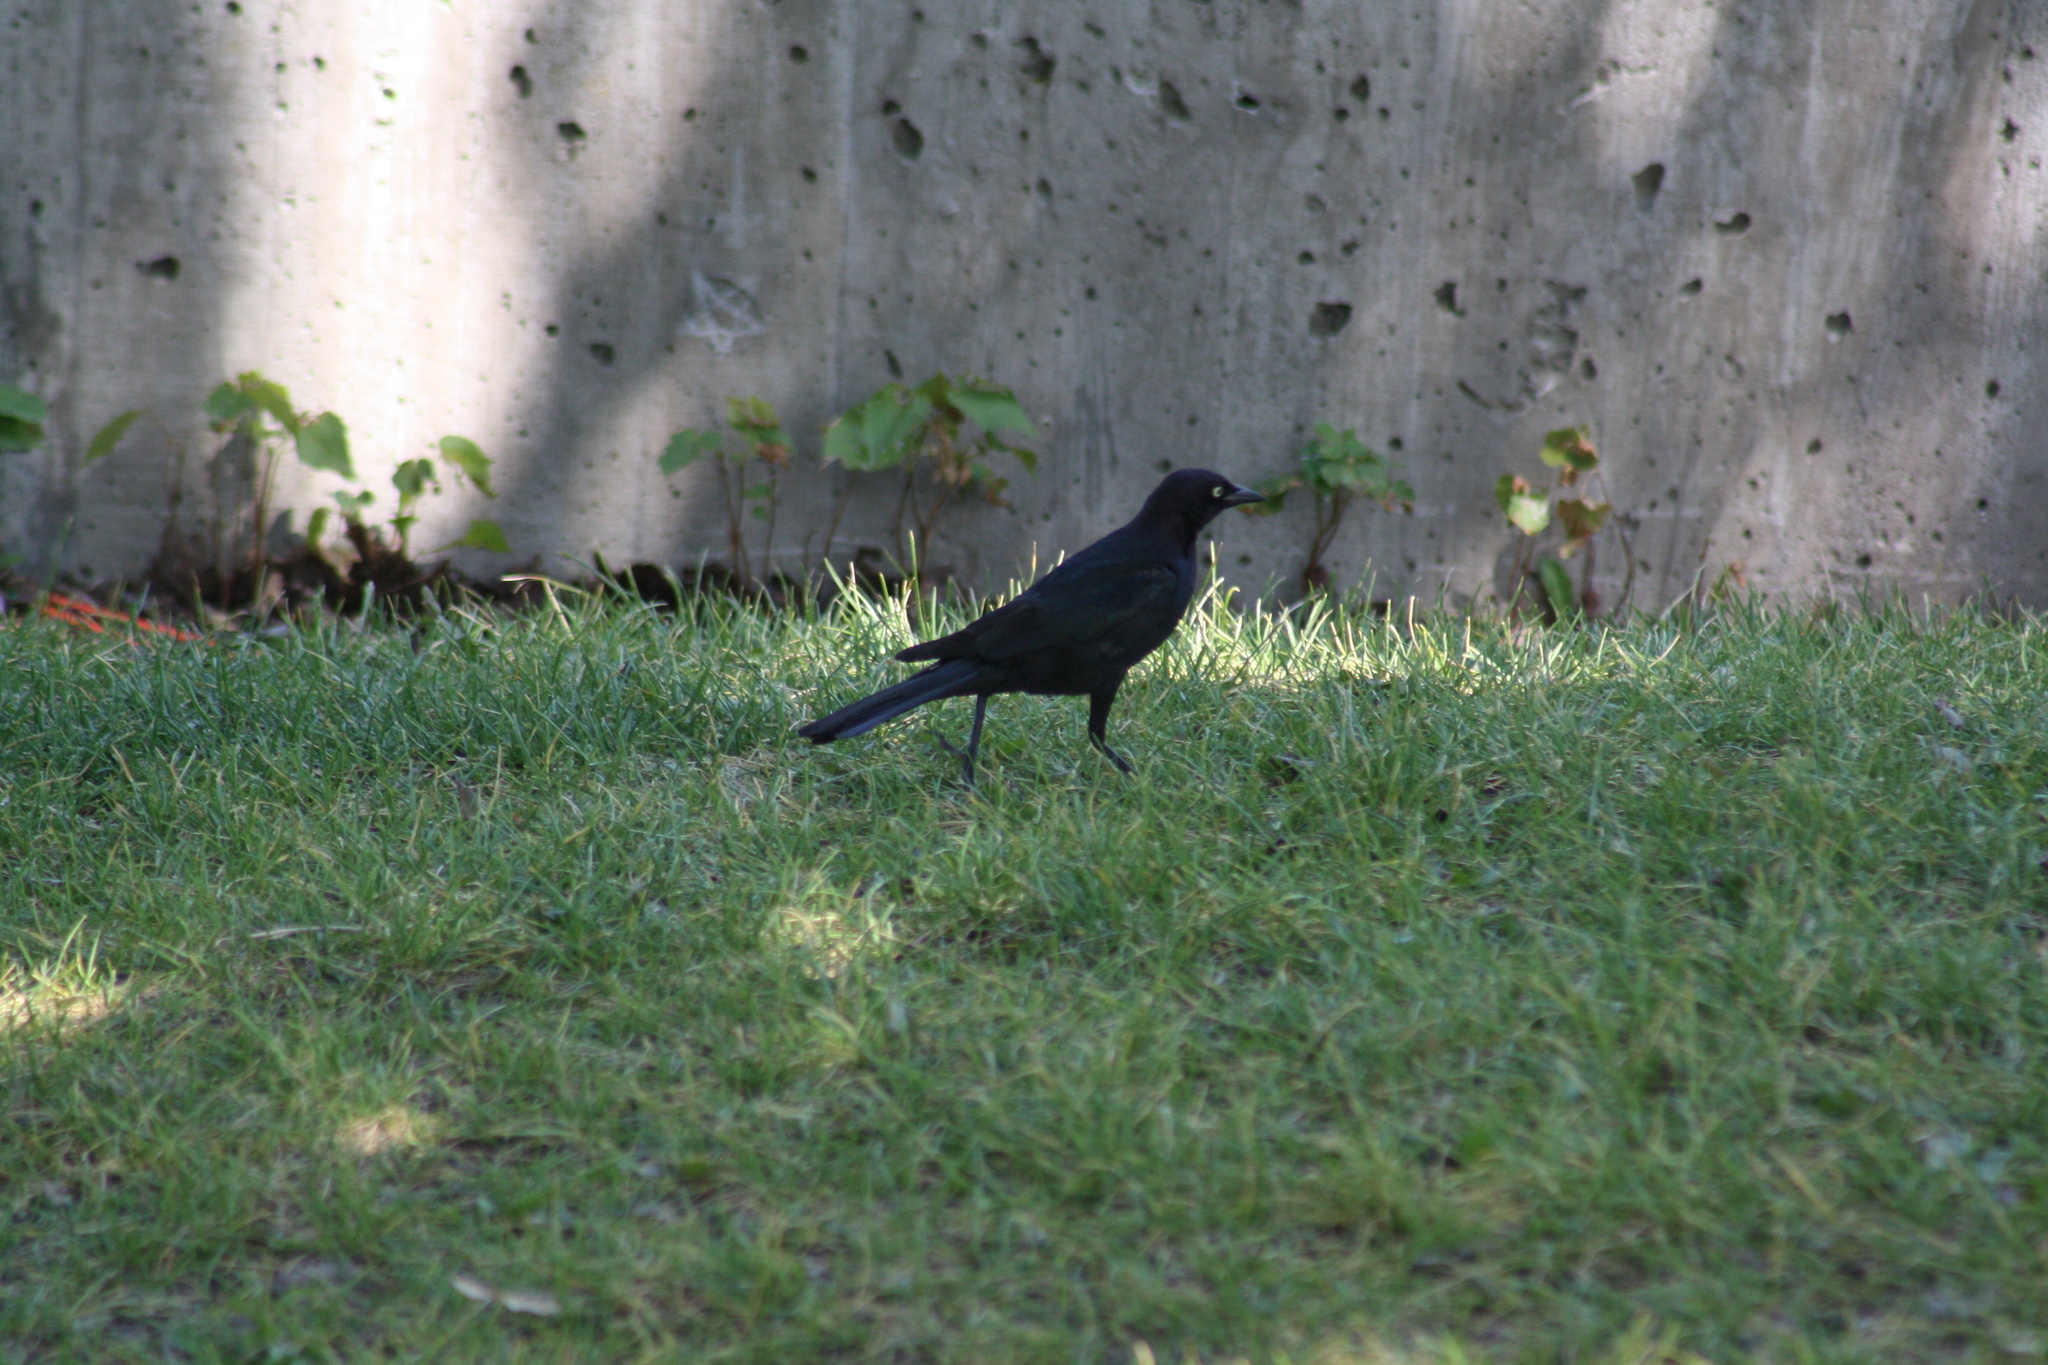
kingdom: Animalia
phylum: Chordata
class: Aves
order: Passeriformes
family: Icteridae
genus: Euphagus
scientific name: Euphagus cyanocephalus
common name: Brewer's blackbird
